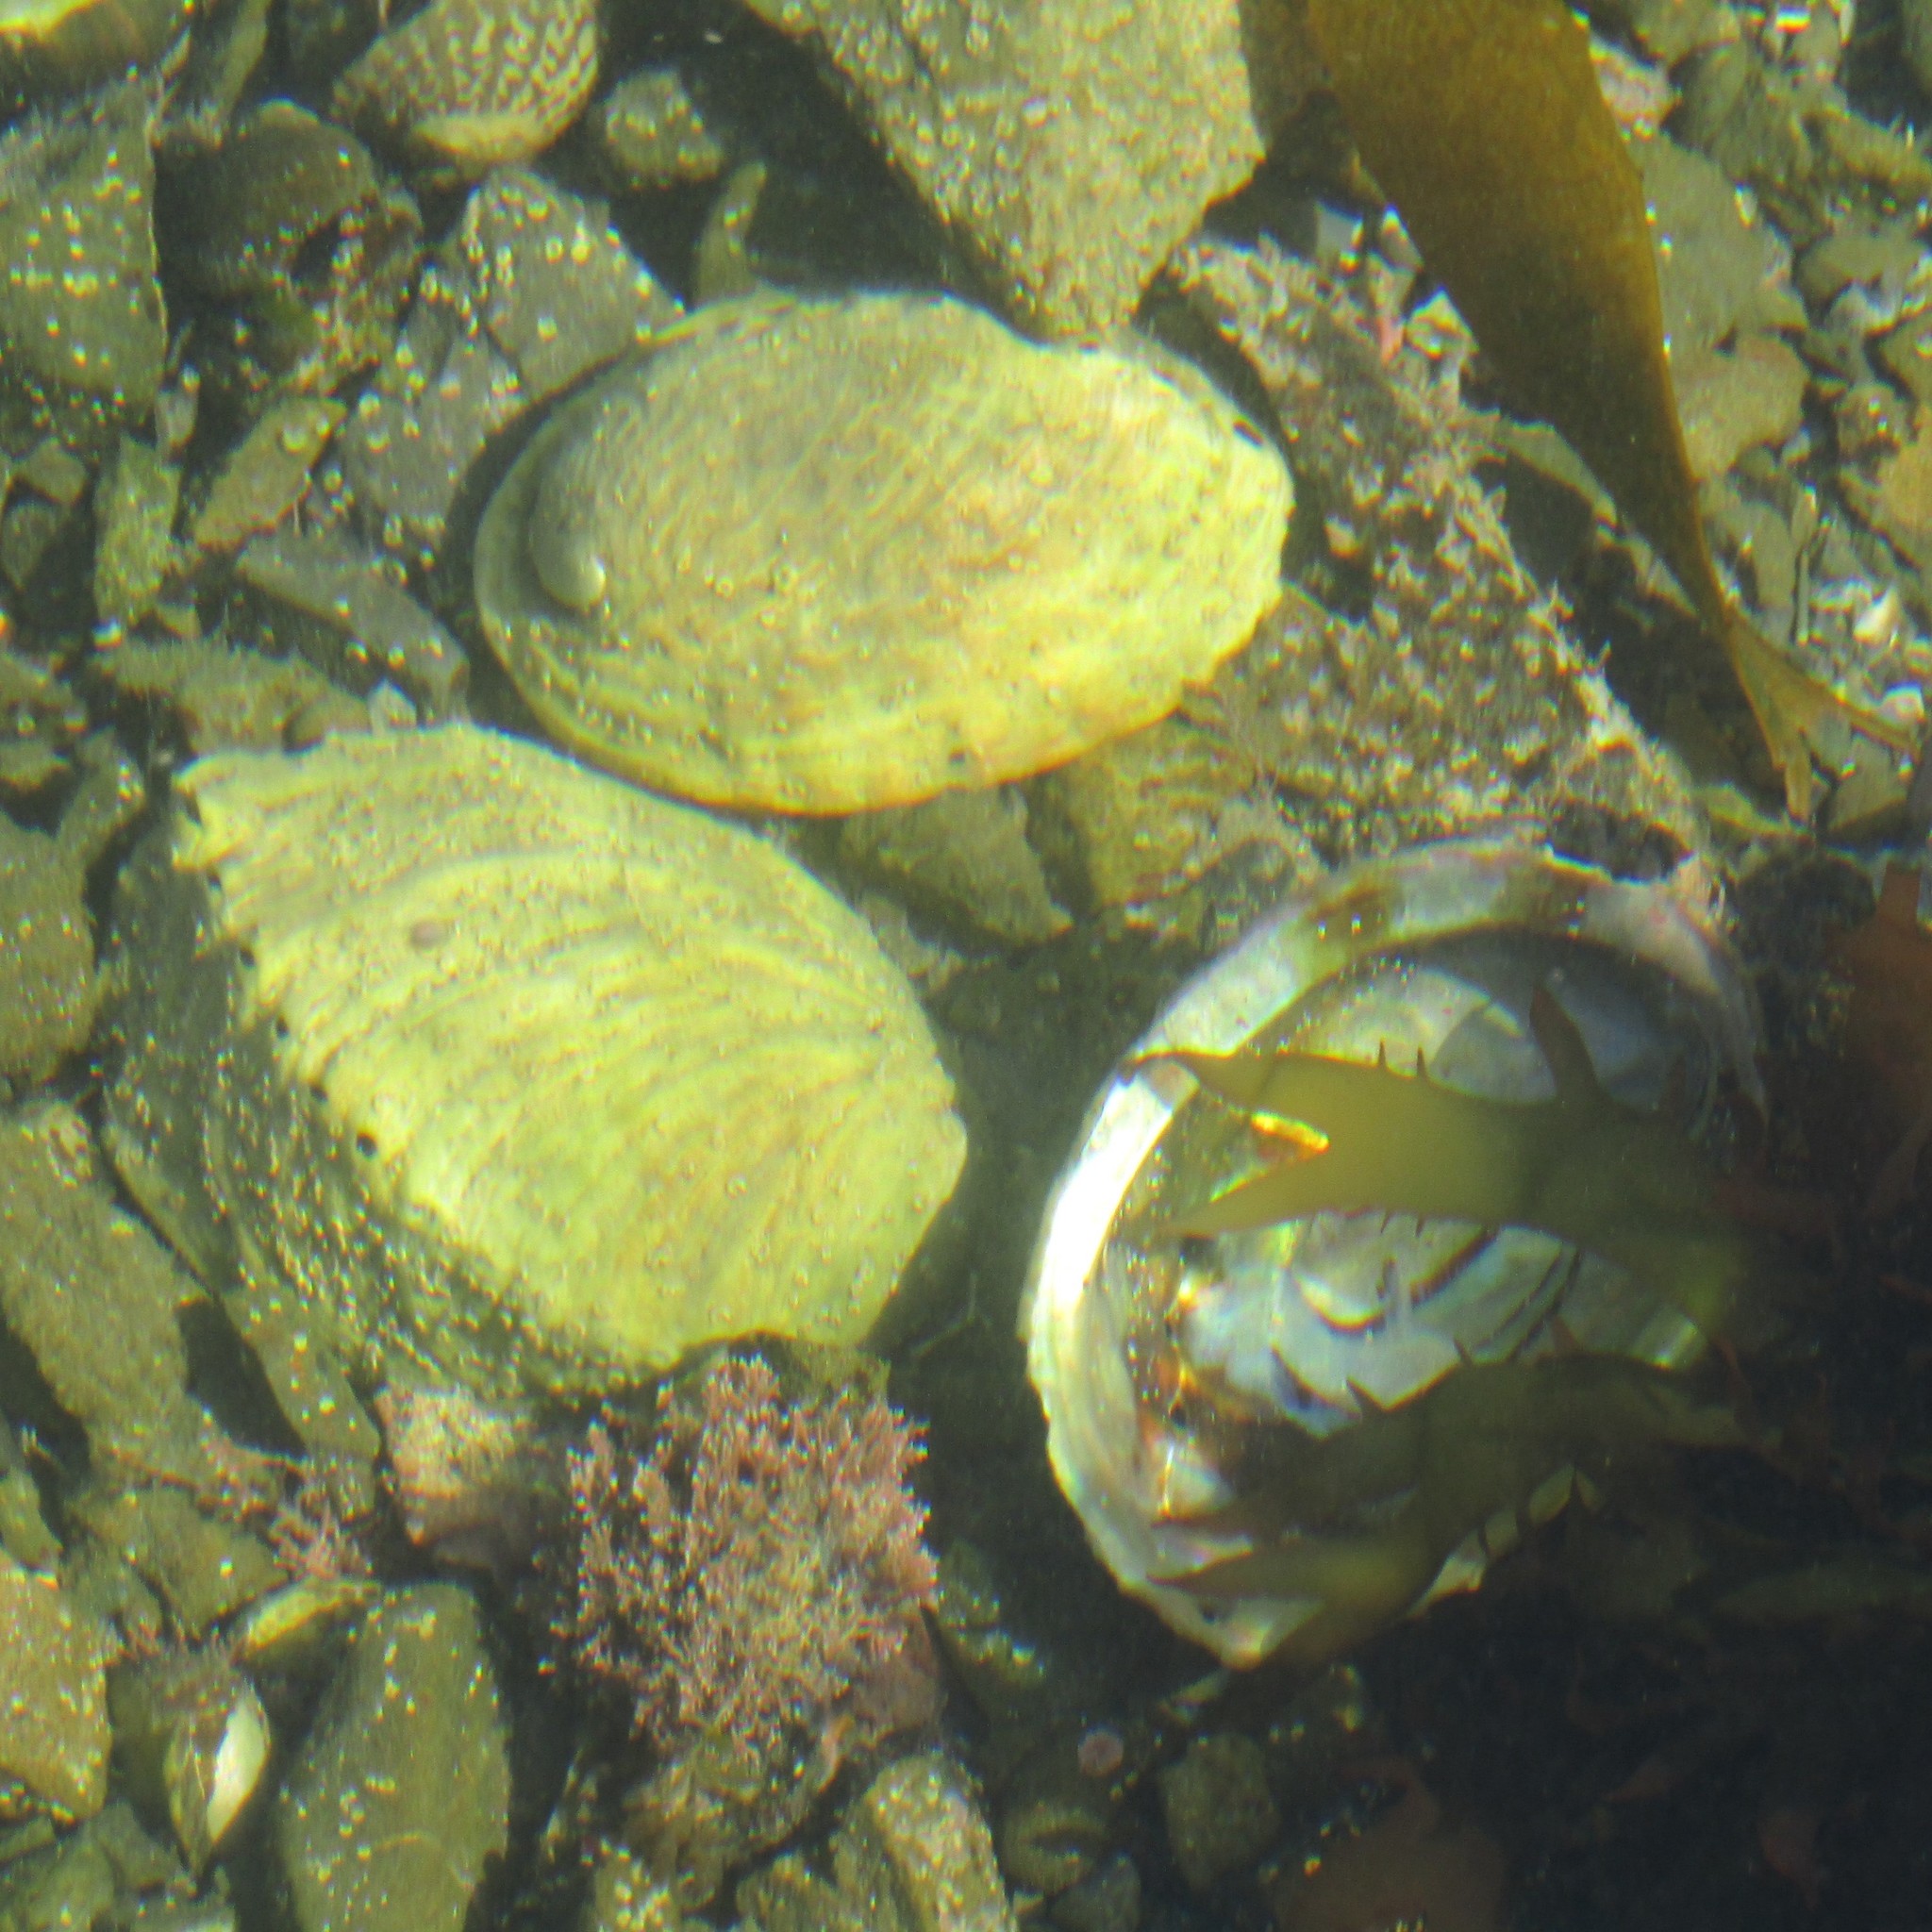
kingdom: Animalia
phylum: Mollusca
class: Gastropoda
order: Lepetellida
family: Haliotidae
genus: Haliotis
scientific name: Haliotis iris
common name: Abalone
